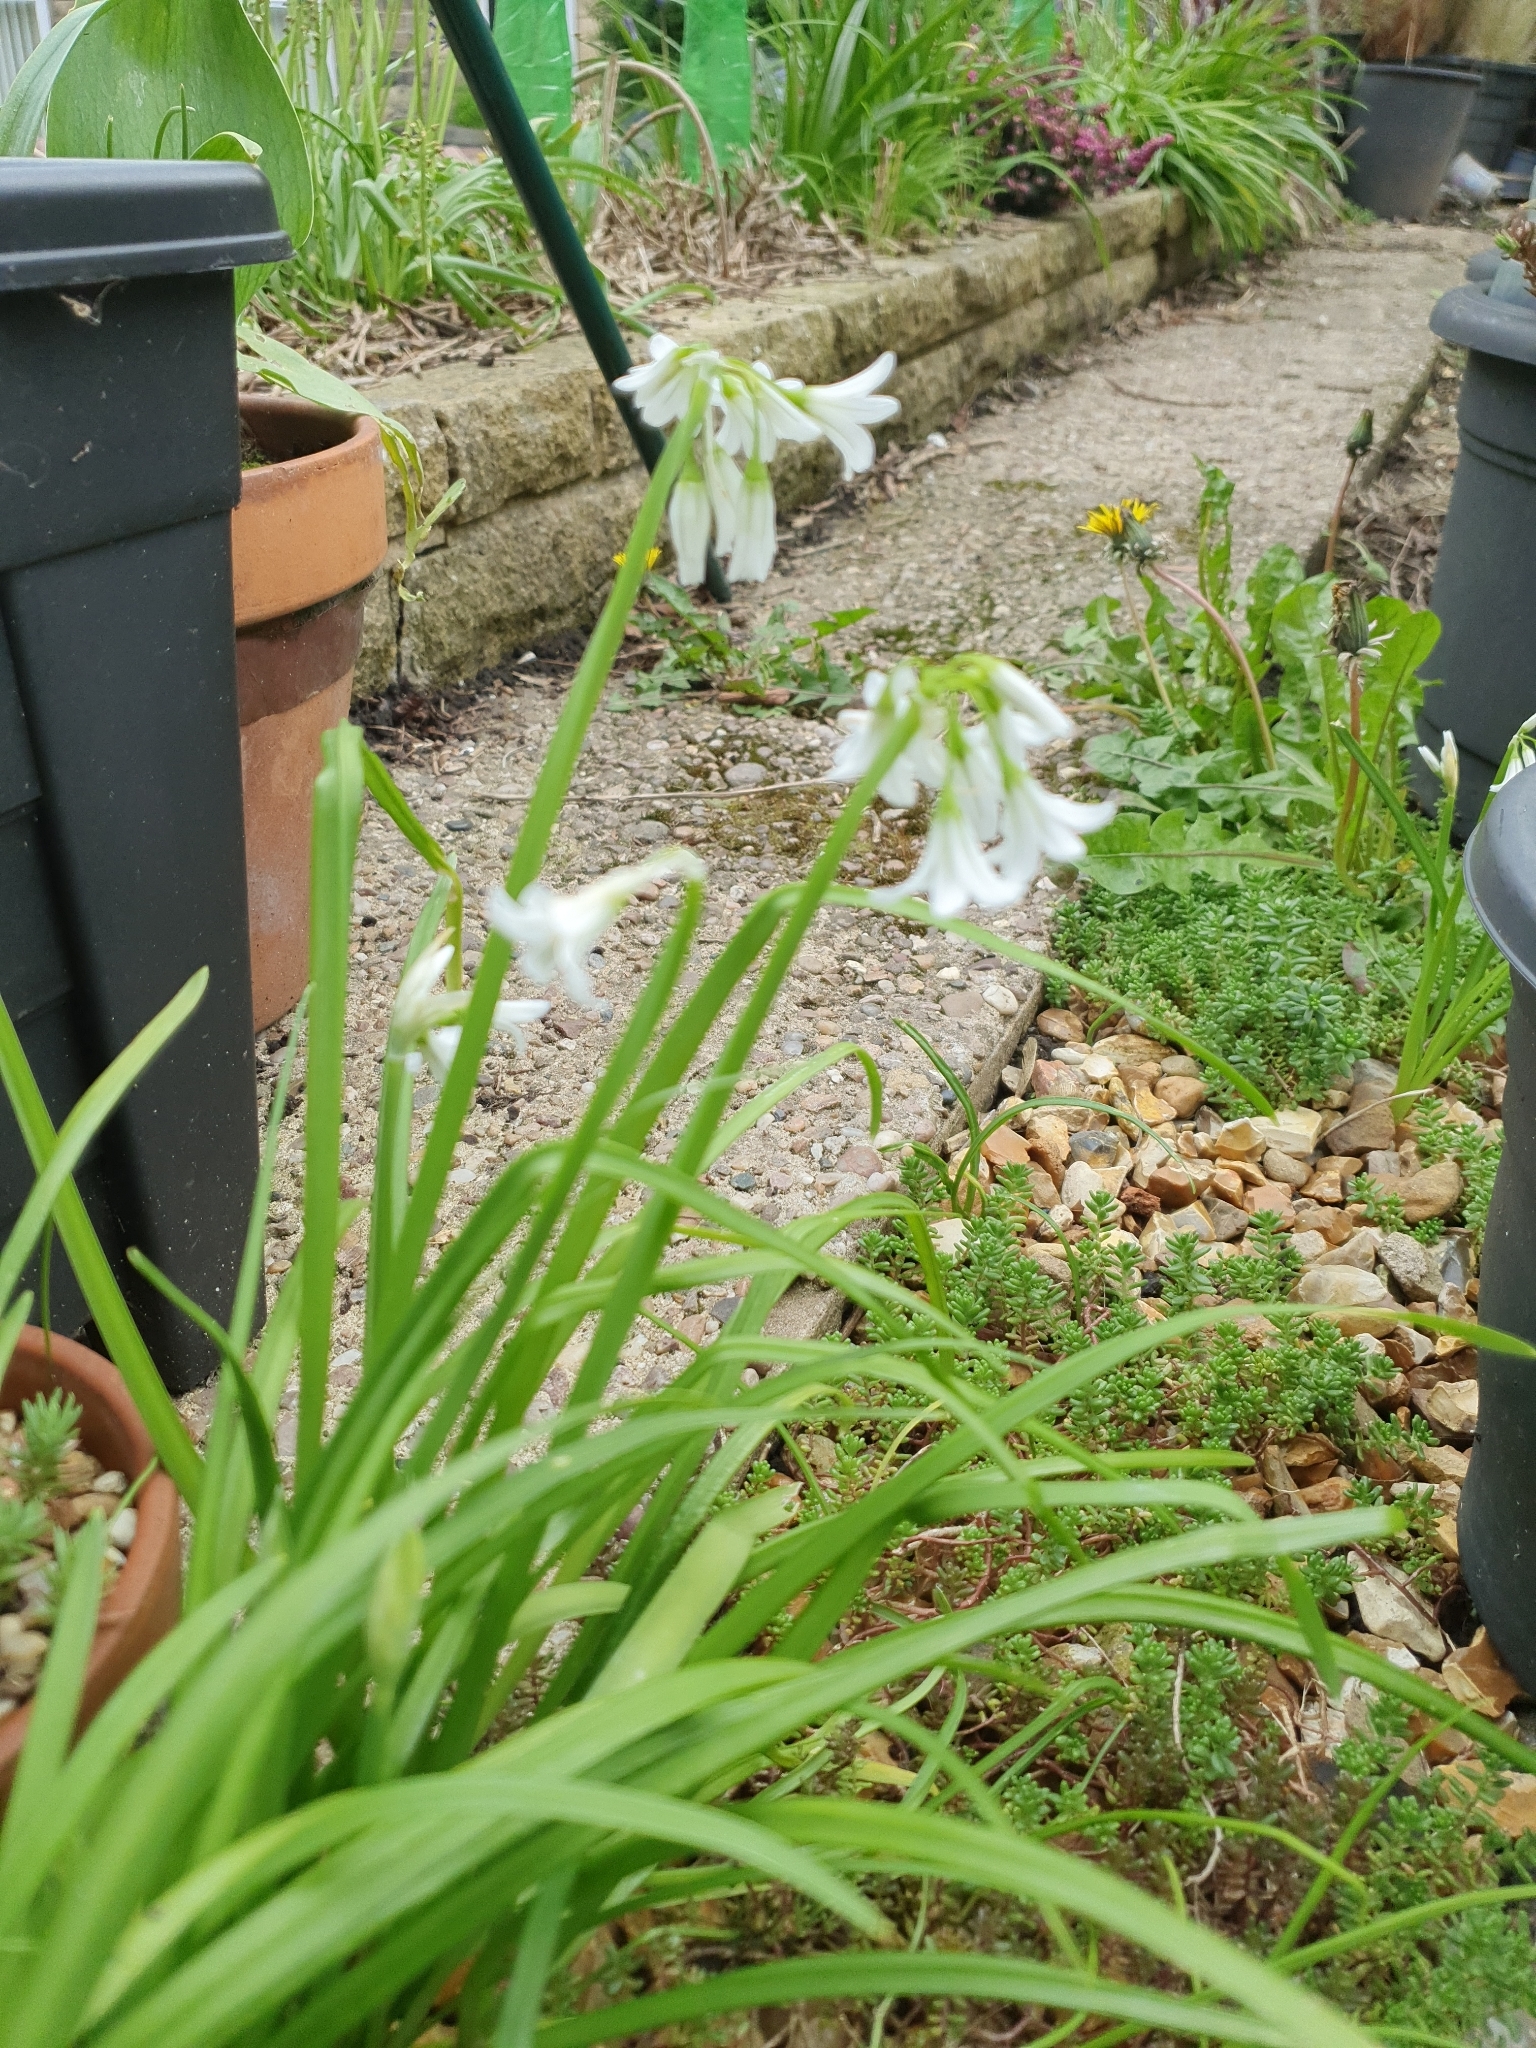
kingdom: Plantae
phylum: Tracheophyta
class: Liliopsida
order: Asparagales
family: Amaryllidaceae
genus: Allium
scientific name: Allium triquetrum
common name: Three-cornered garlic
